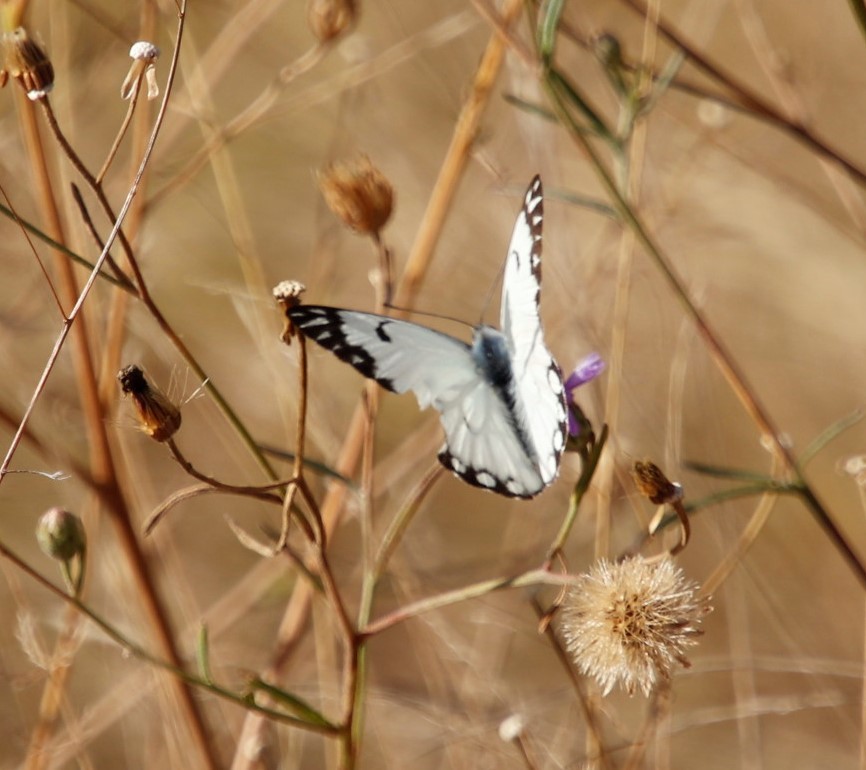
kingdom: Animalia
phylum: Arthropoda
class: Insecta
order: Lepidoptera
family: Pieridae
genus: Belenois
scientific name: Belenois aurota
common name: Brown-veined white
